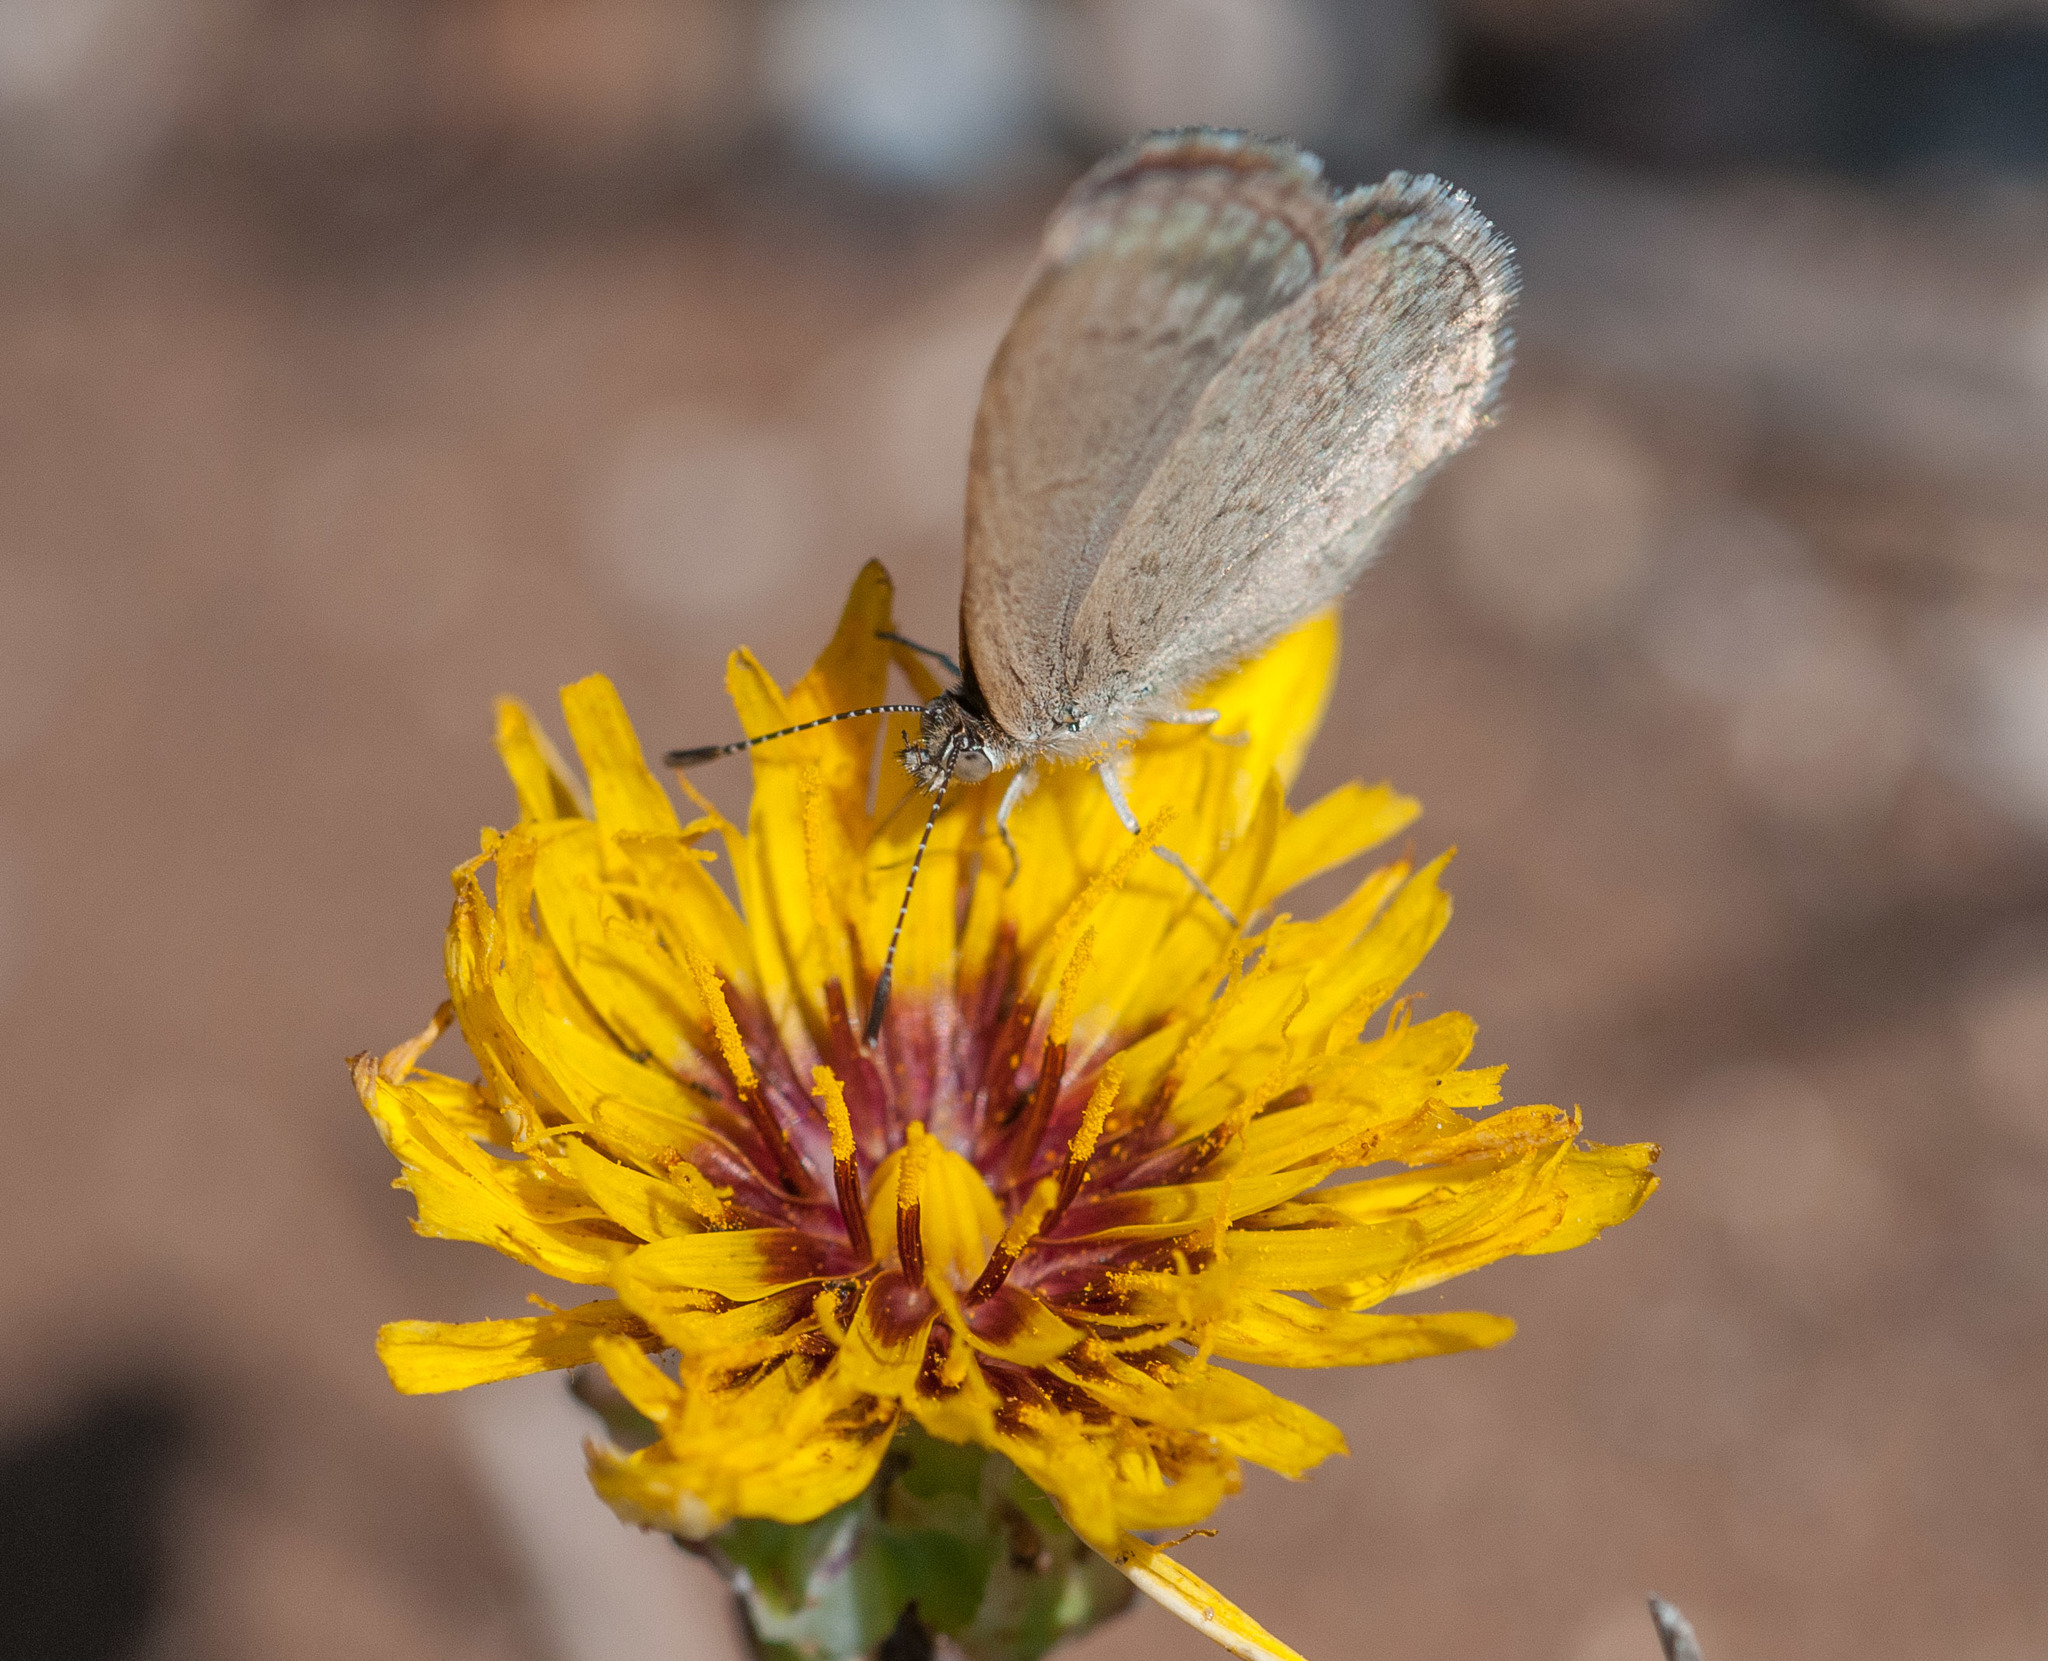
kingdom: Animalia
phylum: Arthropoda
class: Insecta
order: Lepidoptera
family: Lycaenidae
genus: Zizina
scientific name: Zizina labradus
